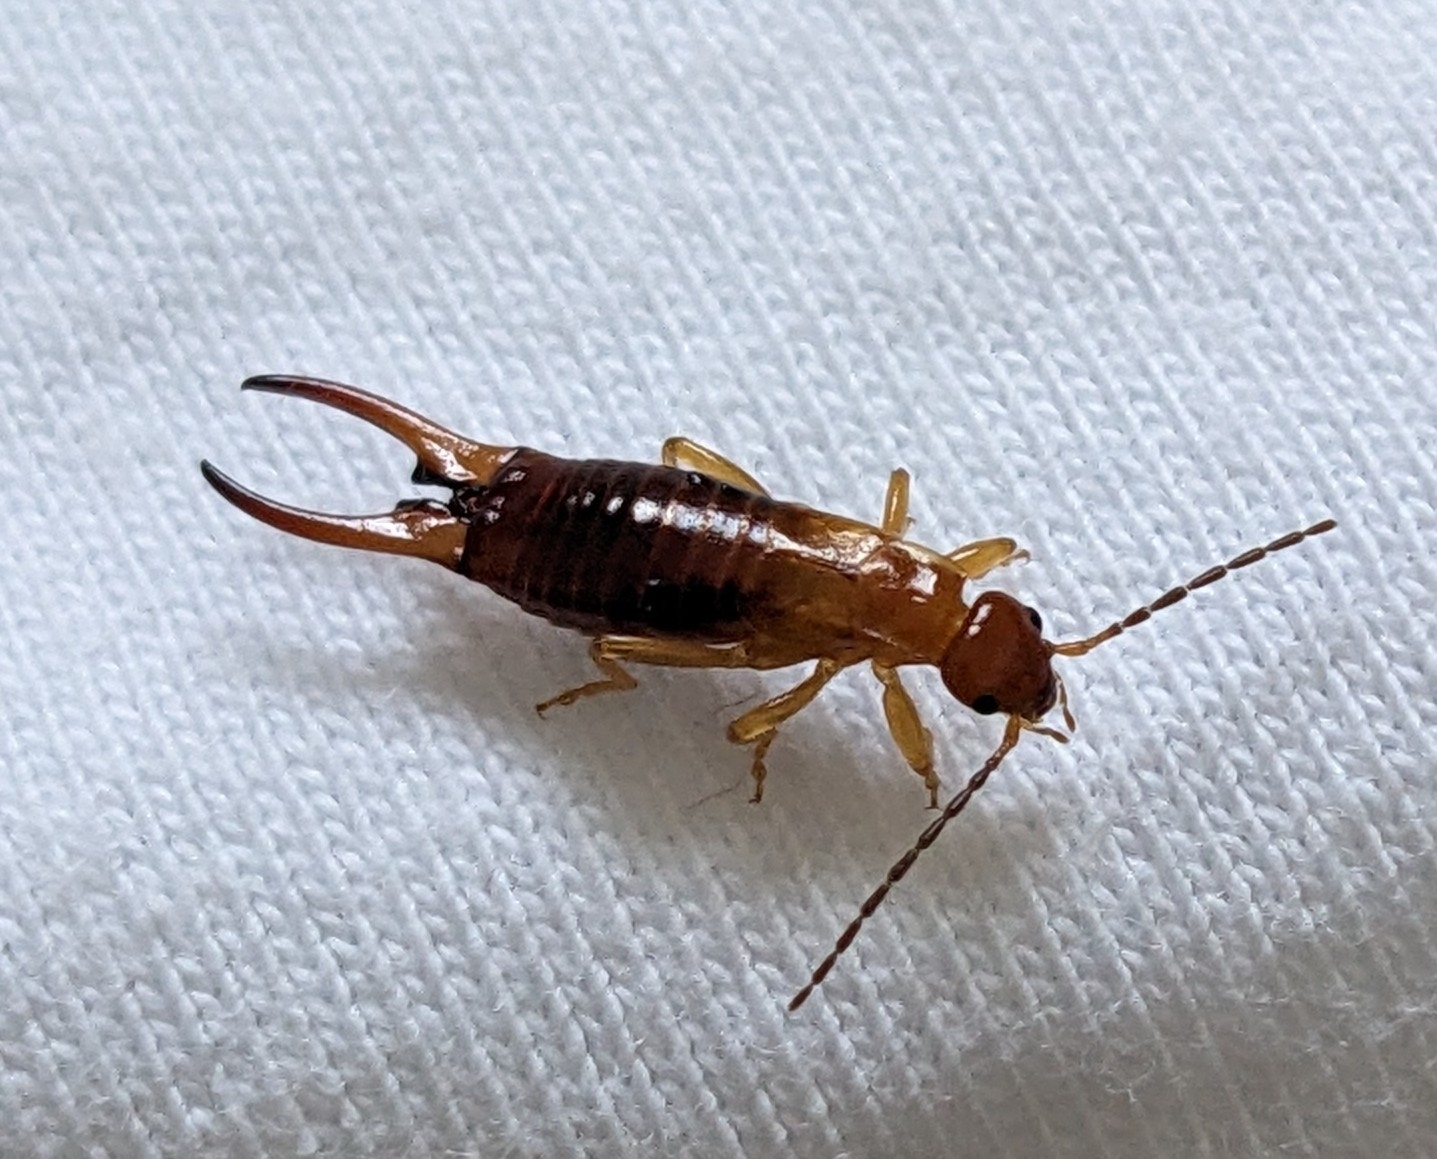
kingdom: Animalia
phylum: Arthropoda
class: Insecta
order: Dermaptera
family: Forficulidae
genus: Forficula
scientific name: Forficula aetolica
